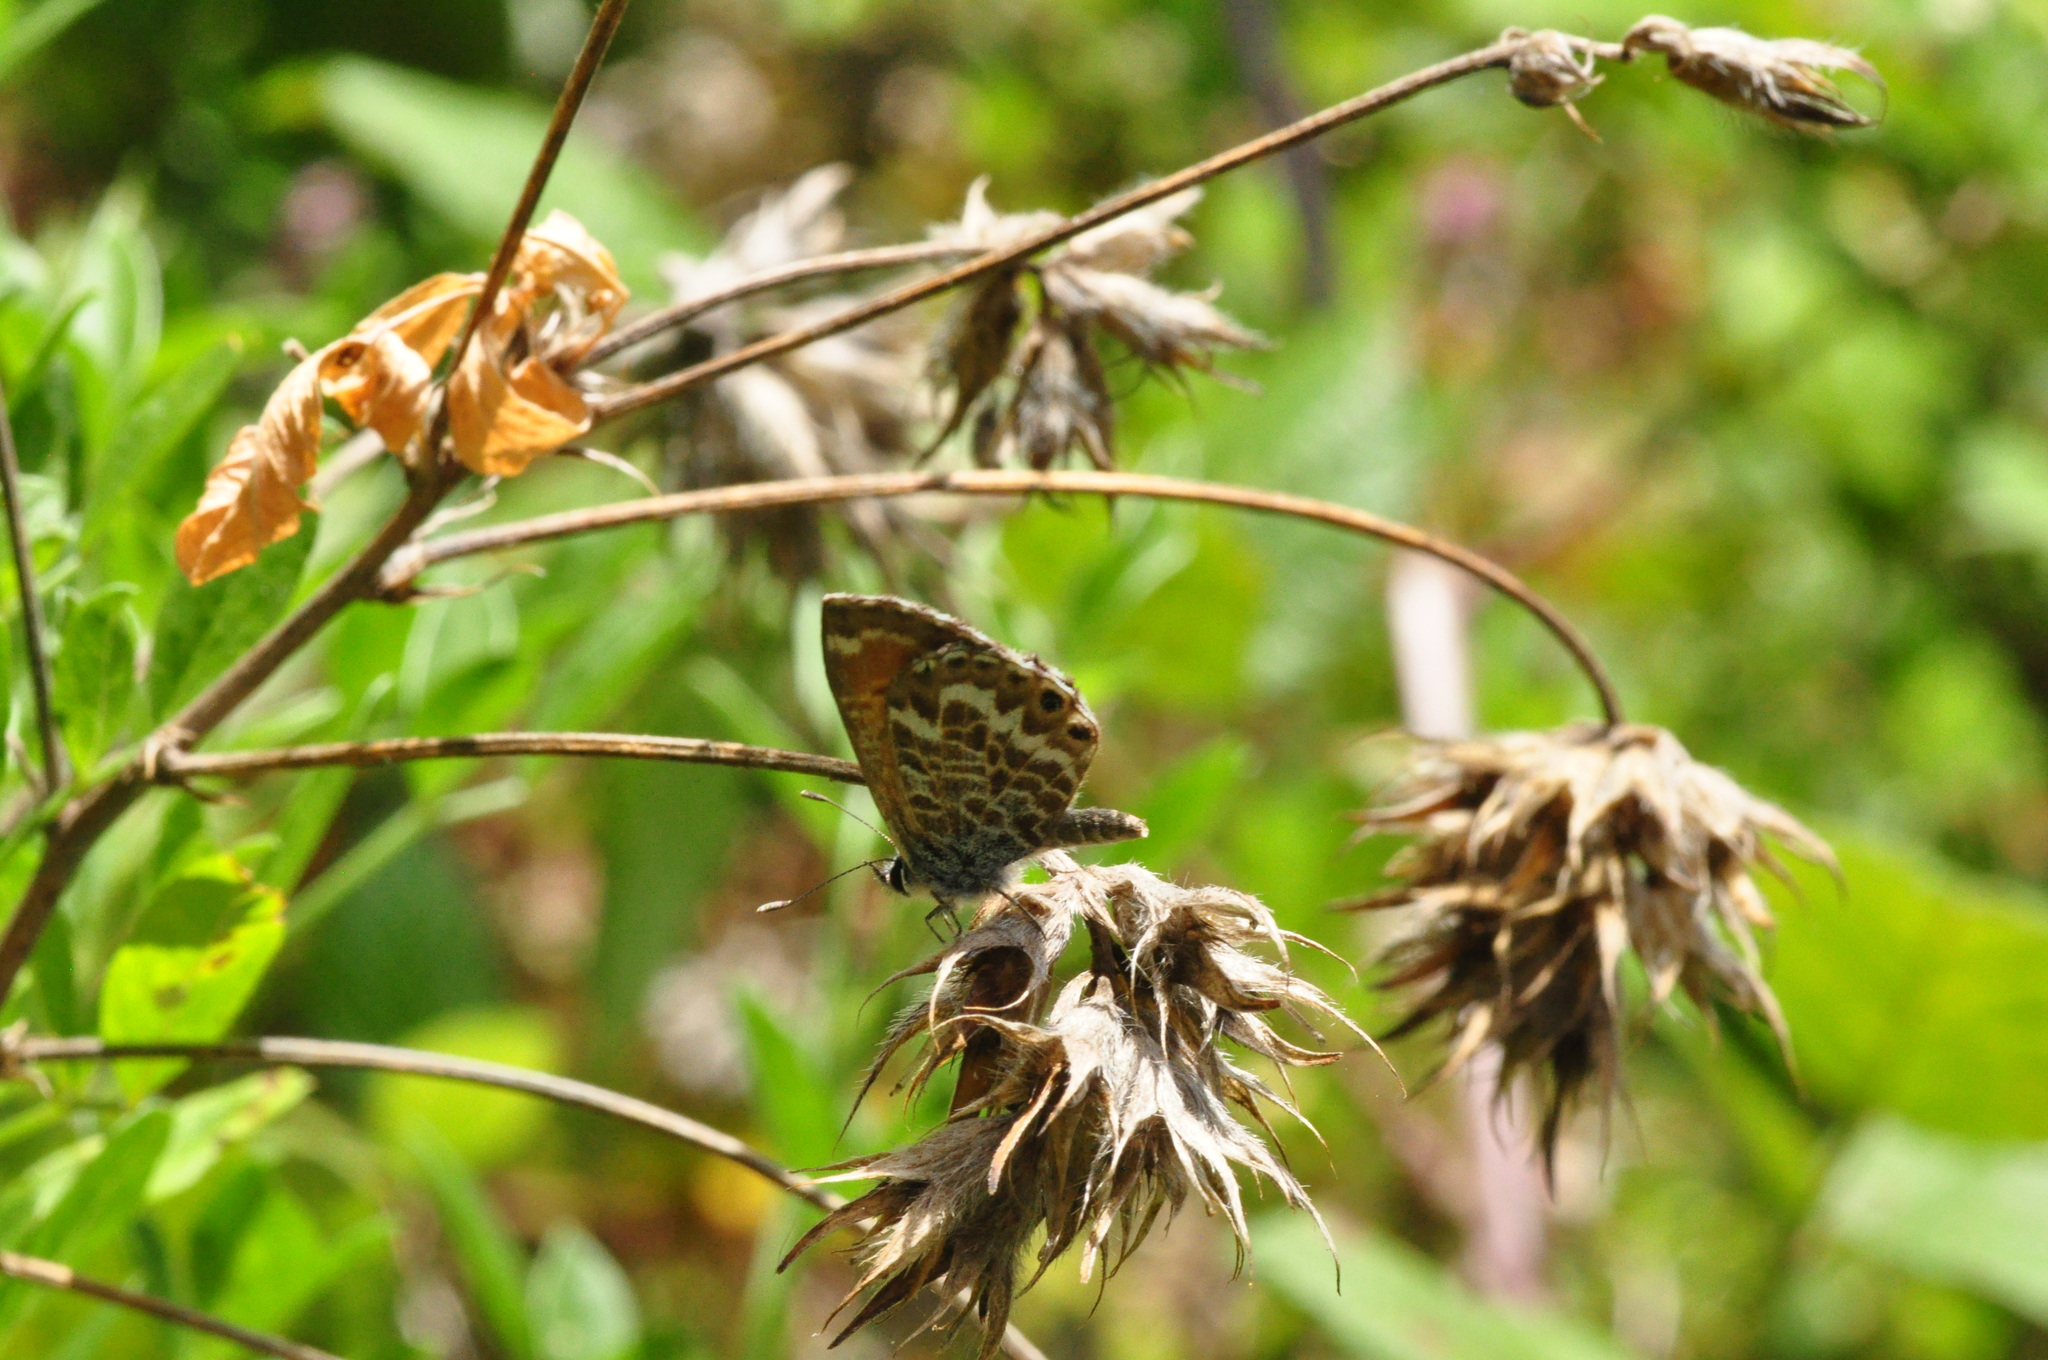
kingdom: Animalia
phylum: Arthropoda
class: Insecta
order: Lepidoptera
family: Lycaenidae
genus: Cyclyrius
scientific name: Cyclyrius webbianus
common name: Canary blue
